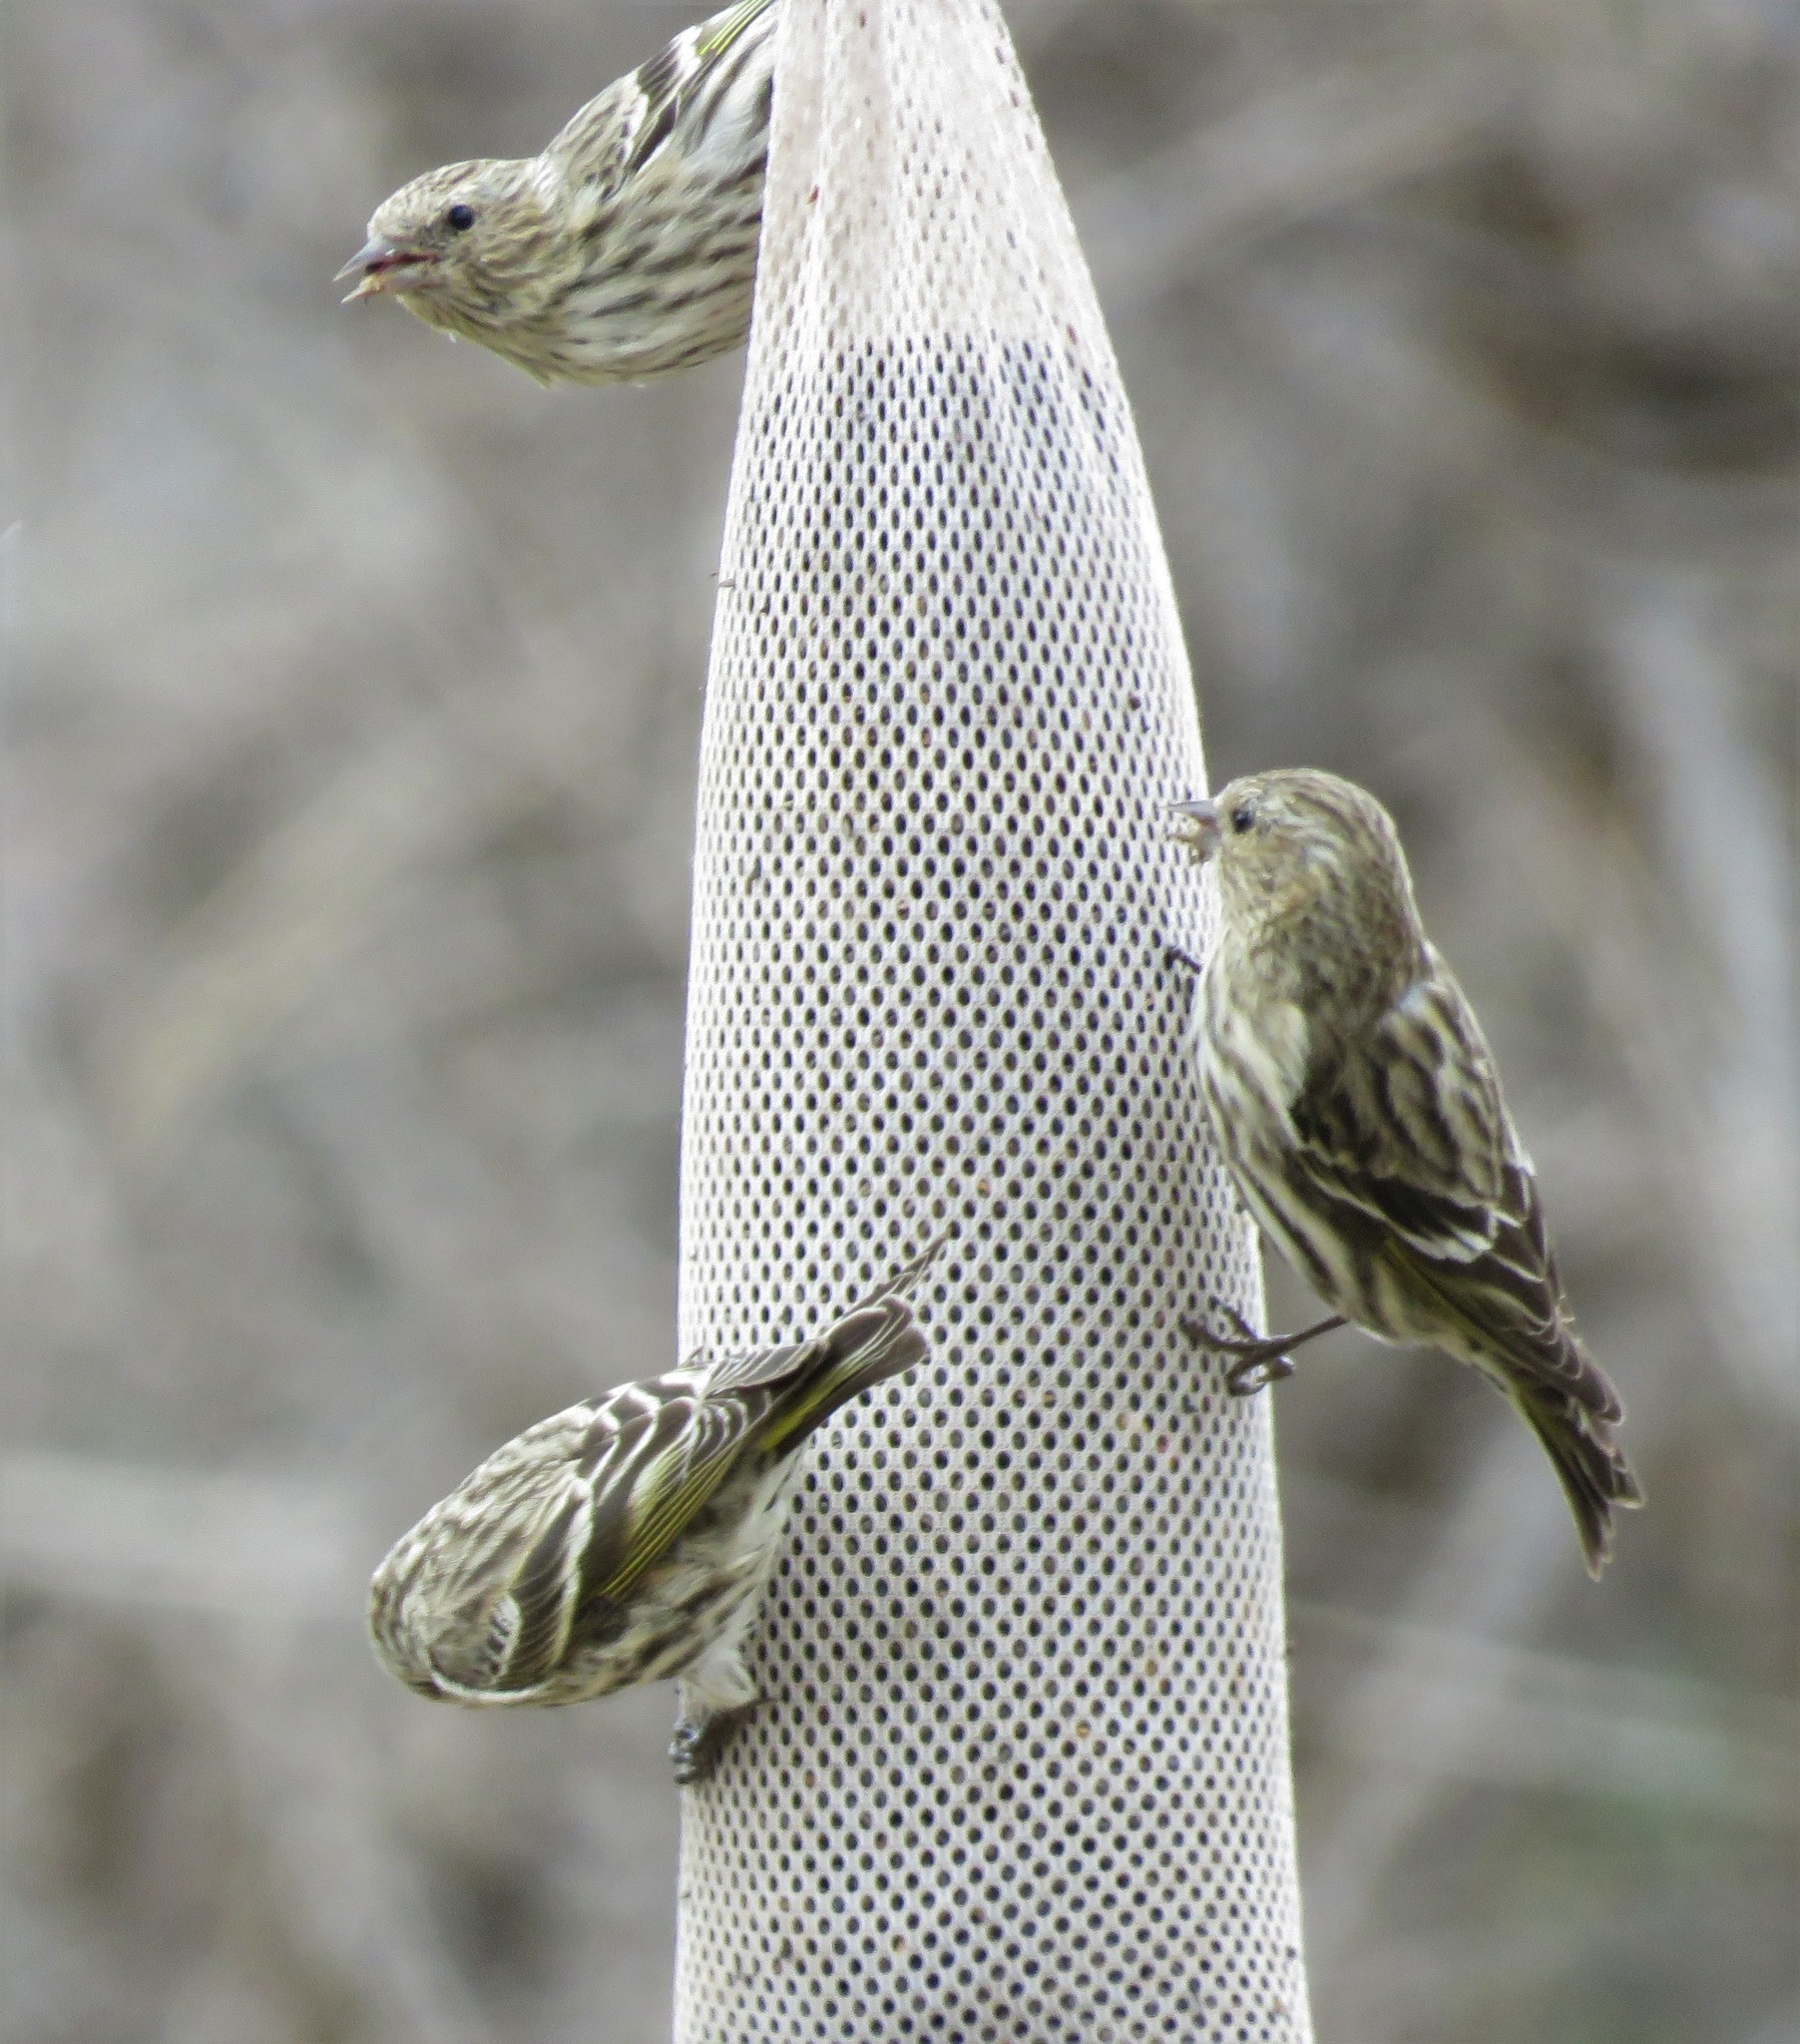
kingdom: Animalia
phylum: Chordata
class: Aves
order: Passeriformes
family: Fringillidae
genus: Spinus
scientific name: Spinus pinus
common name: Pine siskin
